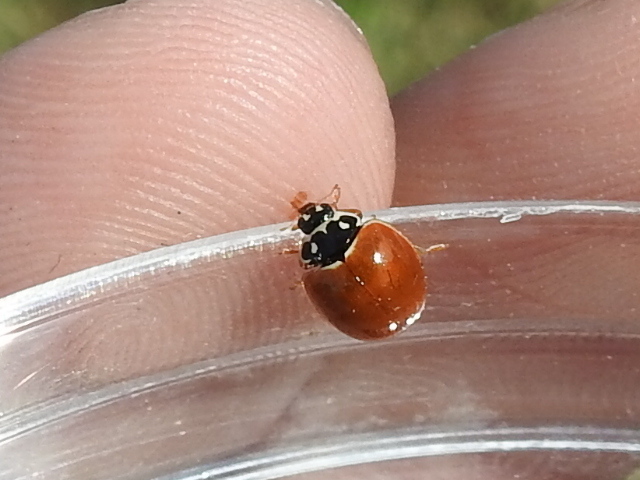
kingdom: Animalia
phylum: Arthropoda
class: Insecta
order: Coleoptera
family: Coccinellidae
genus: Cycloneda
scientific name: Cycloneda munda
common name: Polished lady beetle
